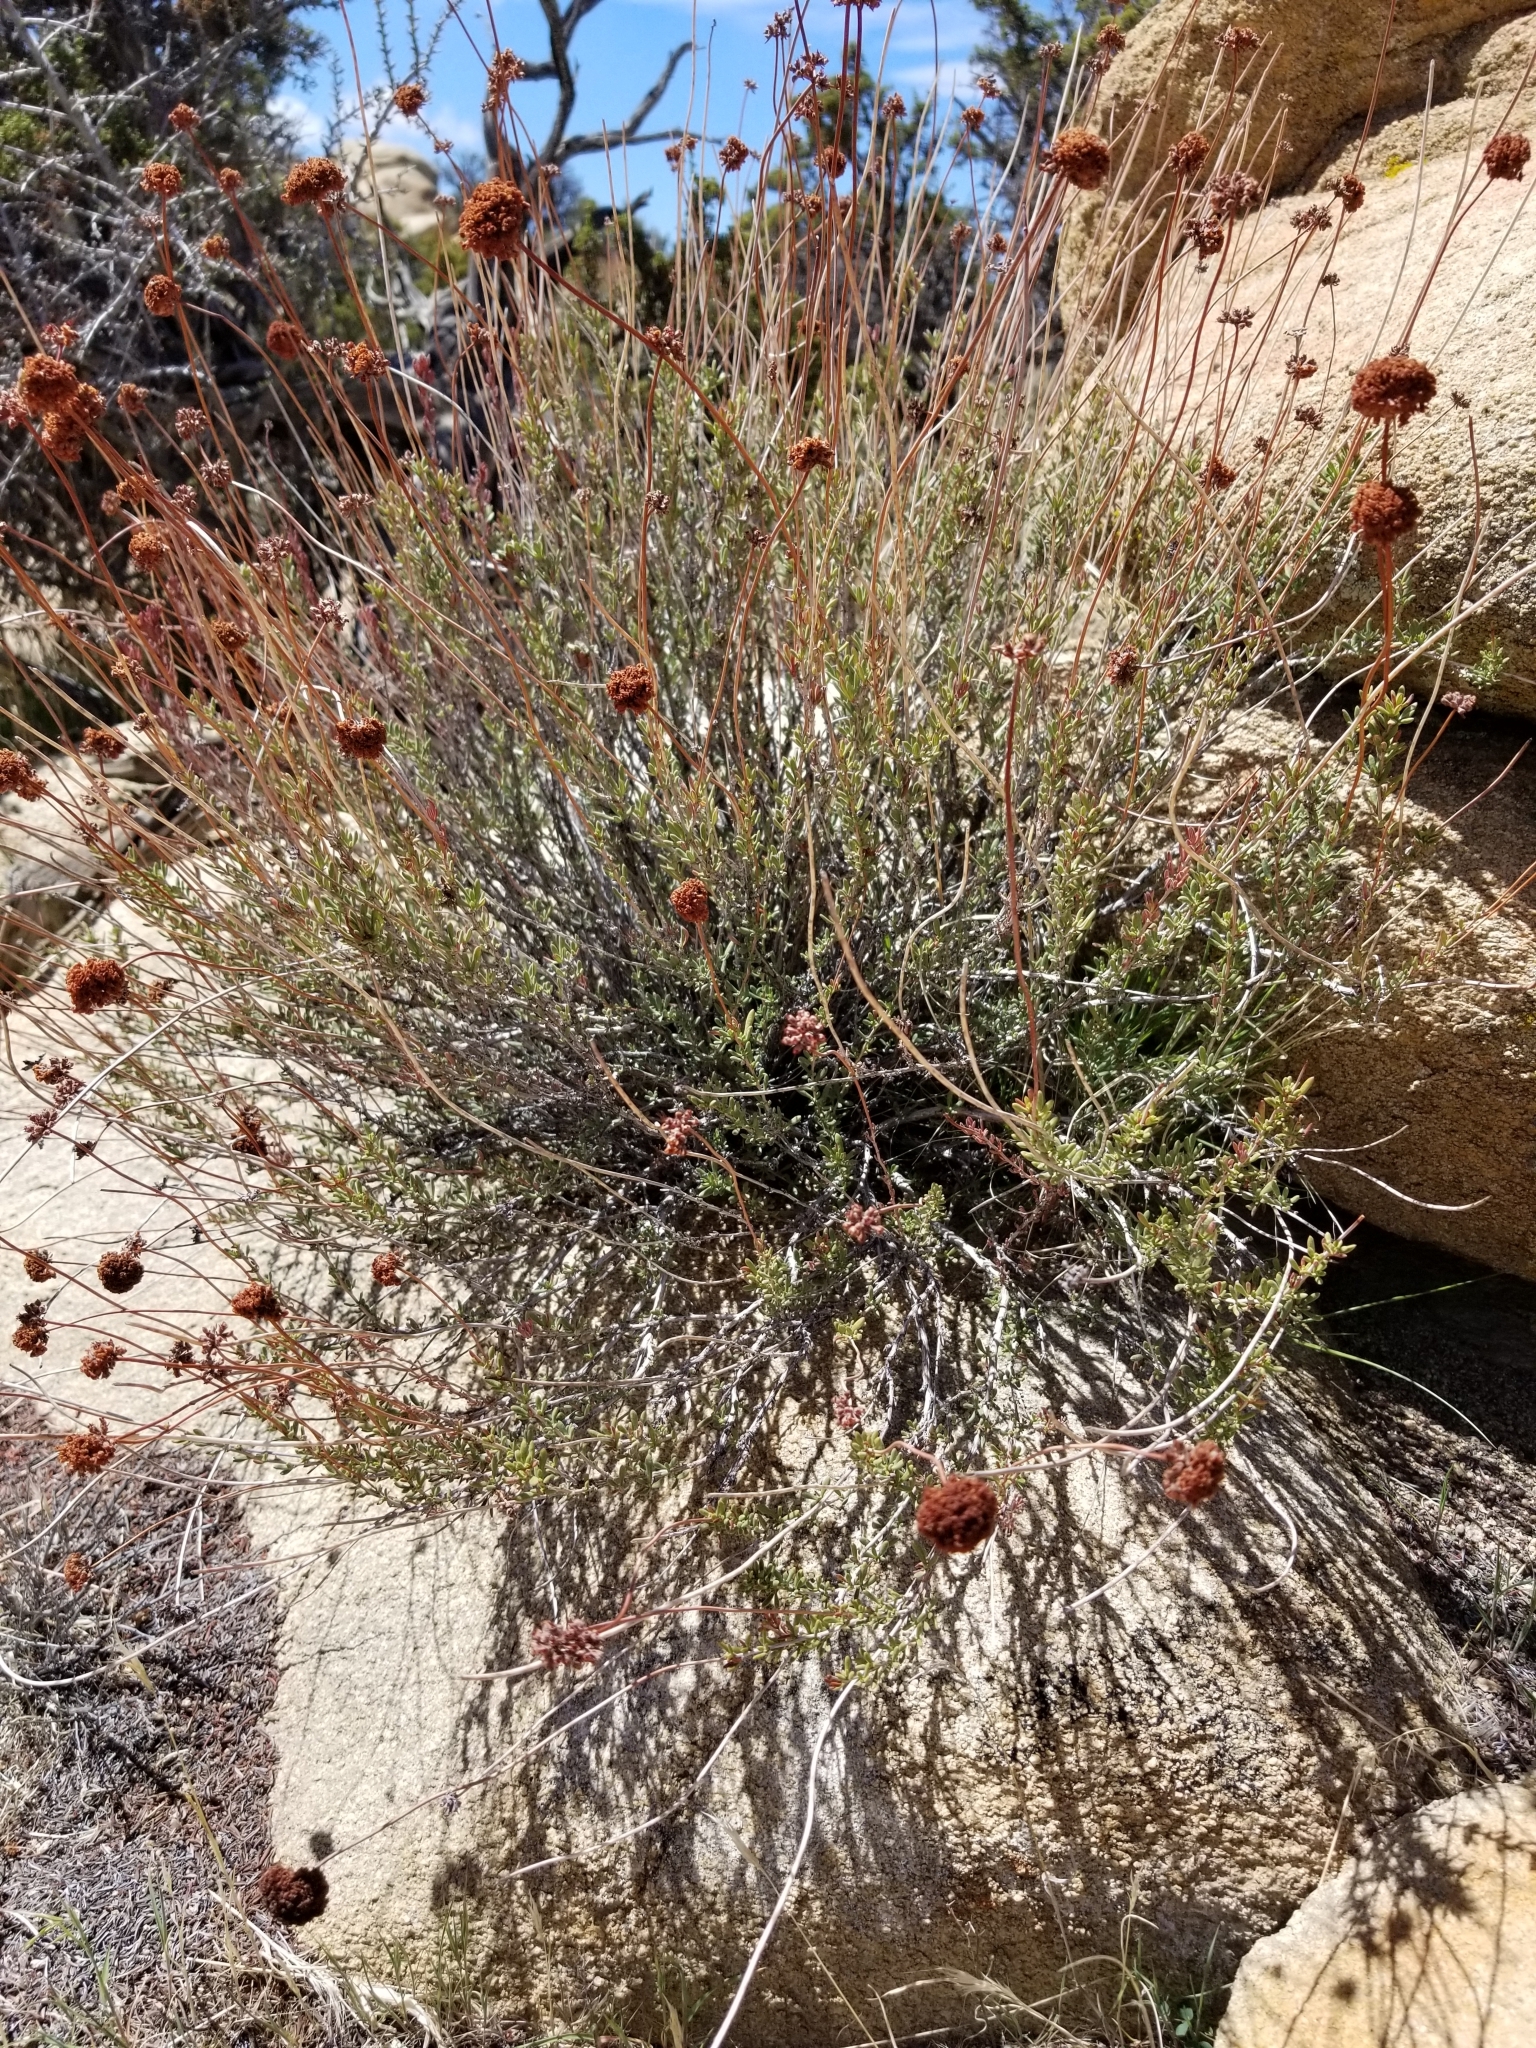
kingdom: Plantae
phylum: Tracheophyta
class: Magnoliopsida
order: Caryophyllales
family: Polygonaceae
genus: Eriogonum
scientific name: Eriogonum fasciculatum
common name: California wild buckwheat
